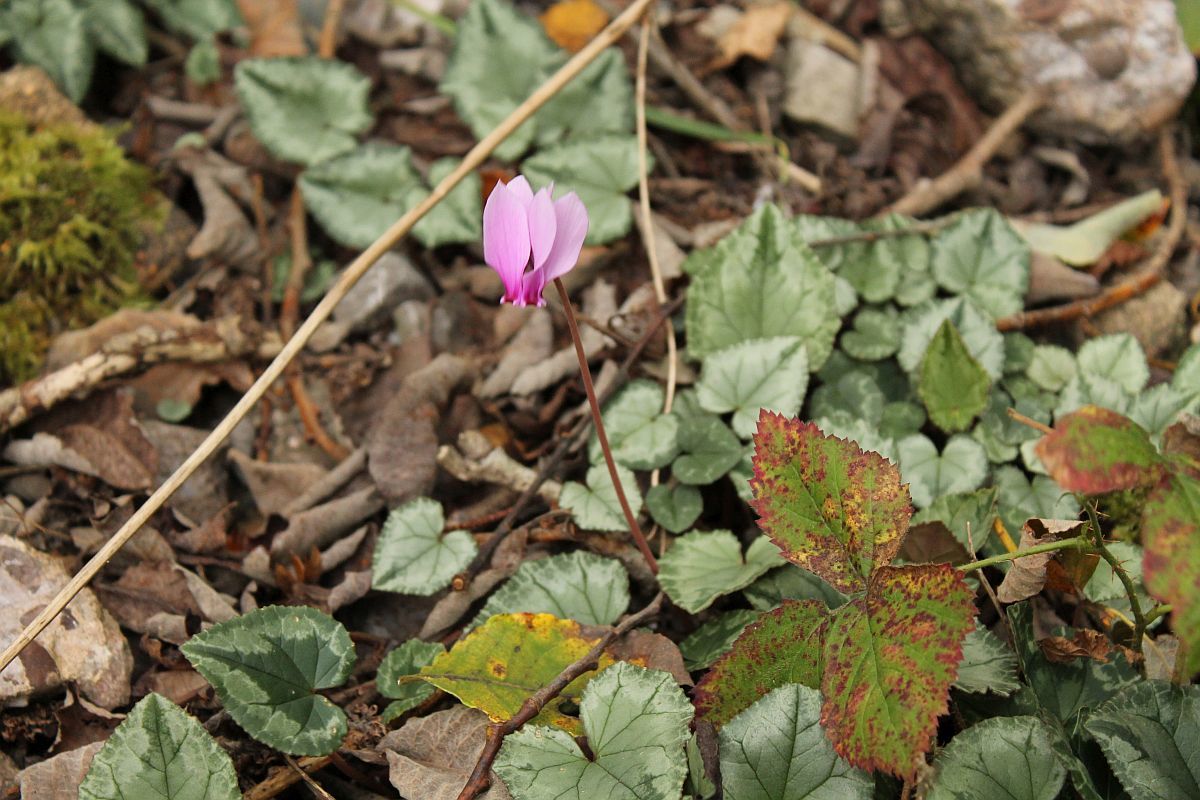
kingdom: Plantae
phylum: Tracheophyta
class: Magnoliopsida
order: Ericales
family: Primulaceae
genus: Cyclamen
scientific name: Cyclamen hederifolium
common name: Sowbread
